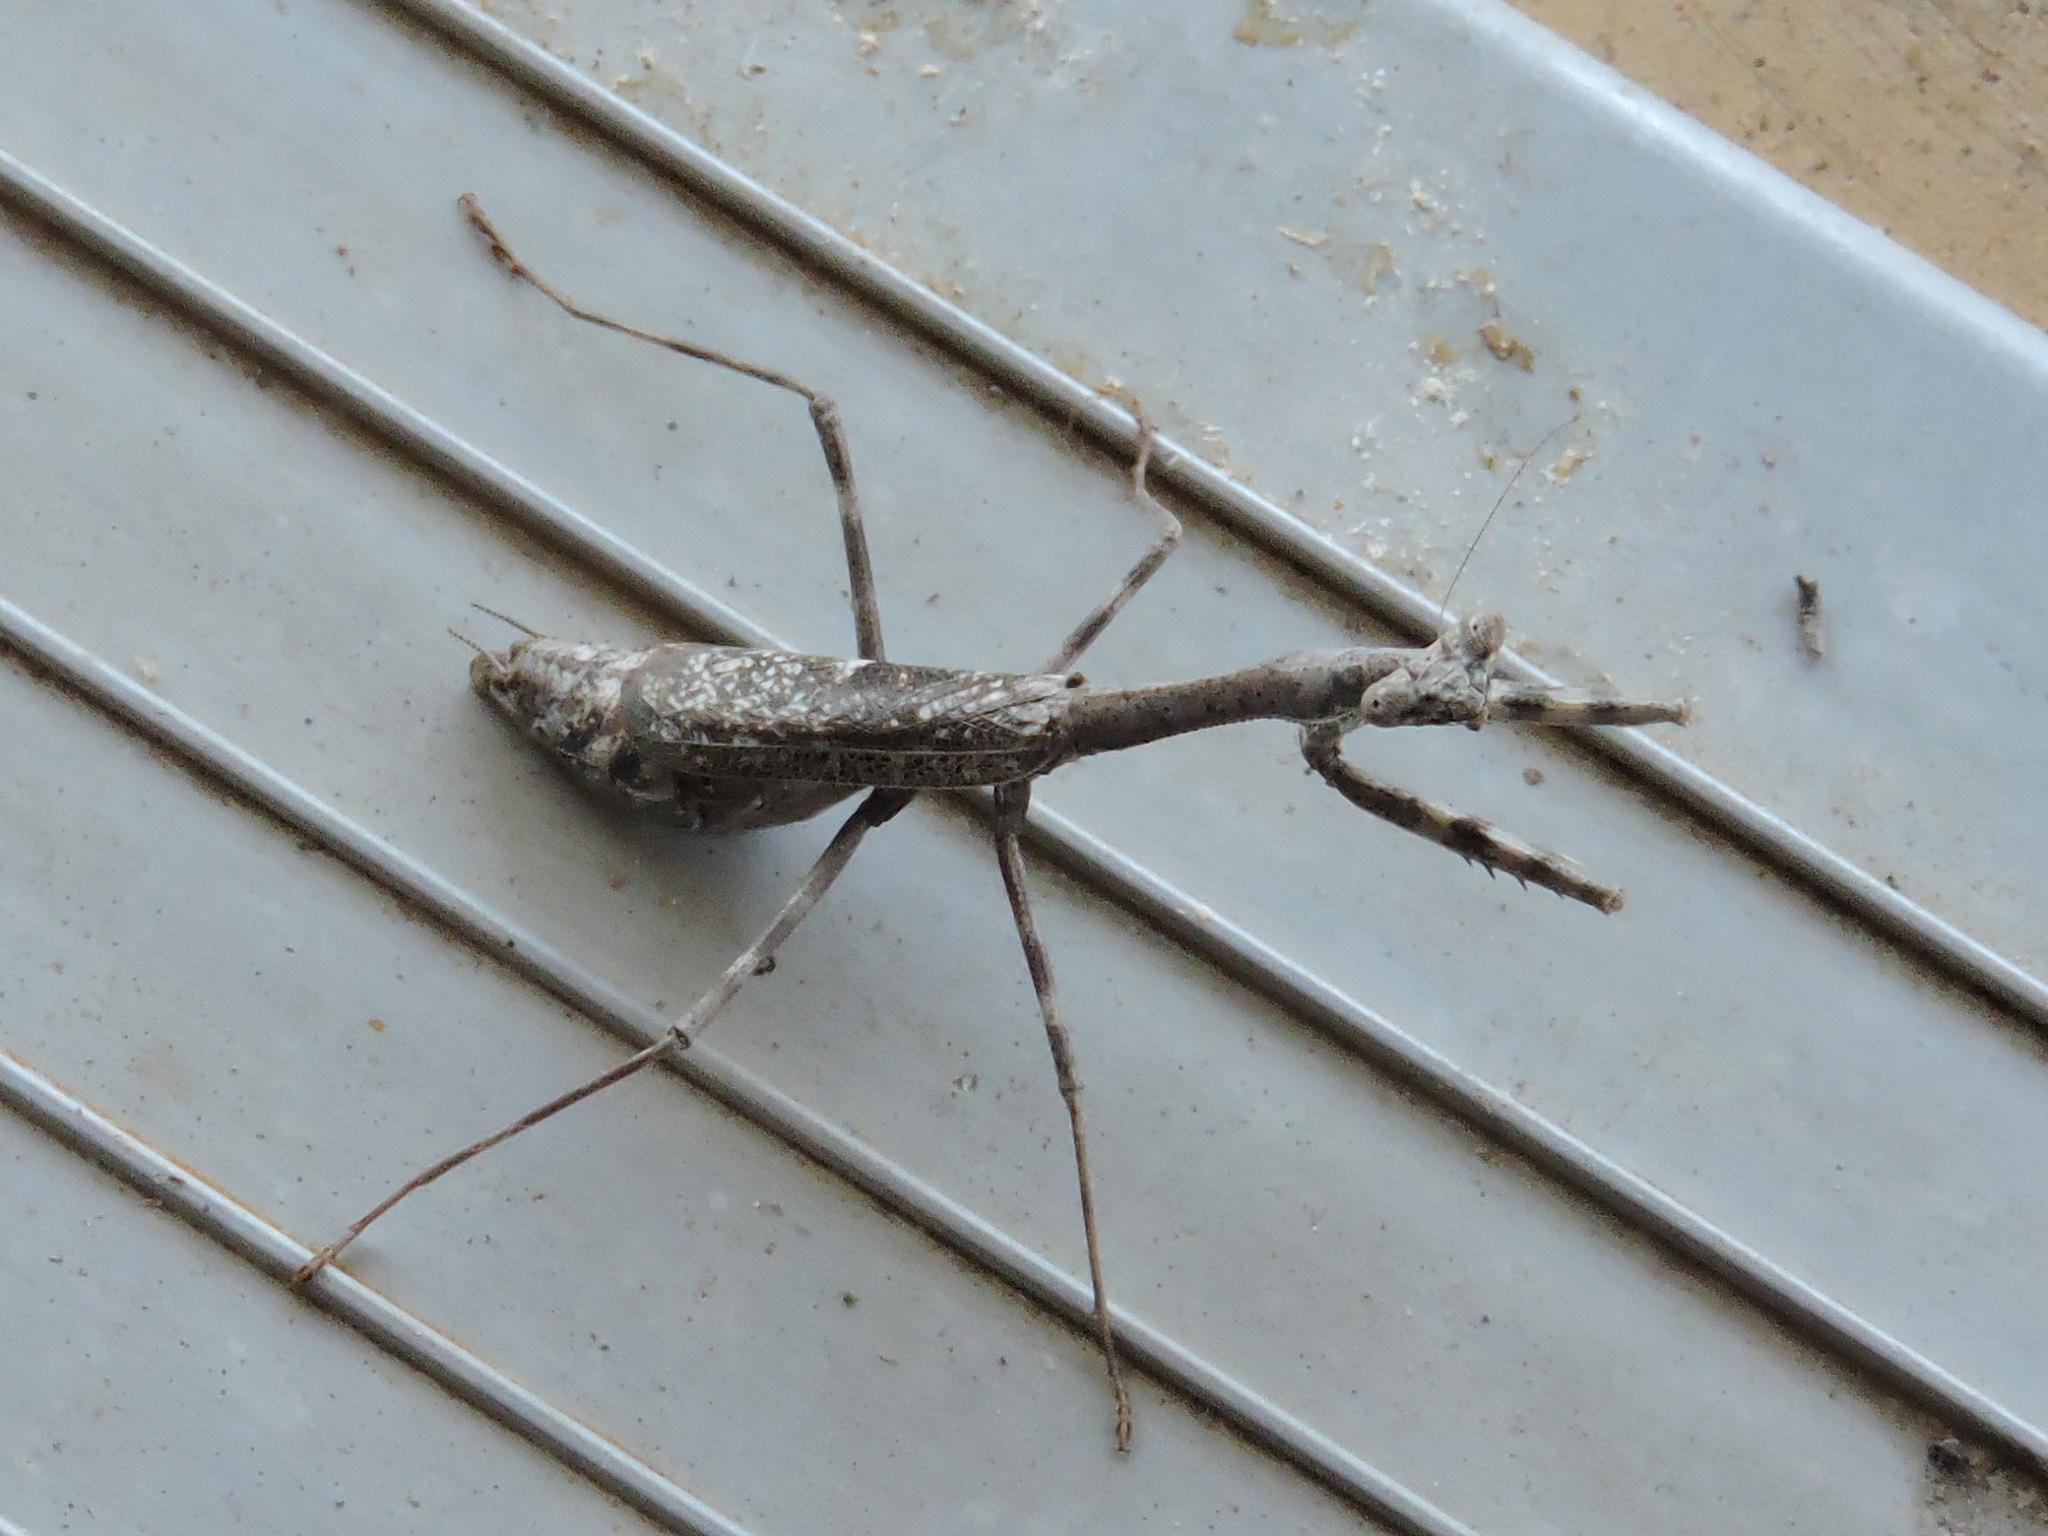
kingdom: Animalia
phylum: Arthropoda
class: Insecta
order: Mantodea
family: Mantidae
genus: Stagmomantis
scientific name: Stagmomantis carolina
